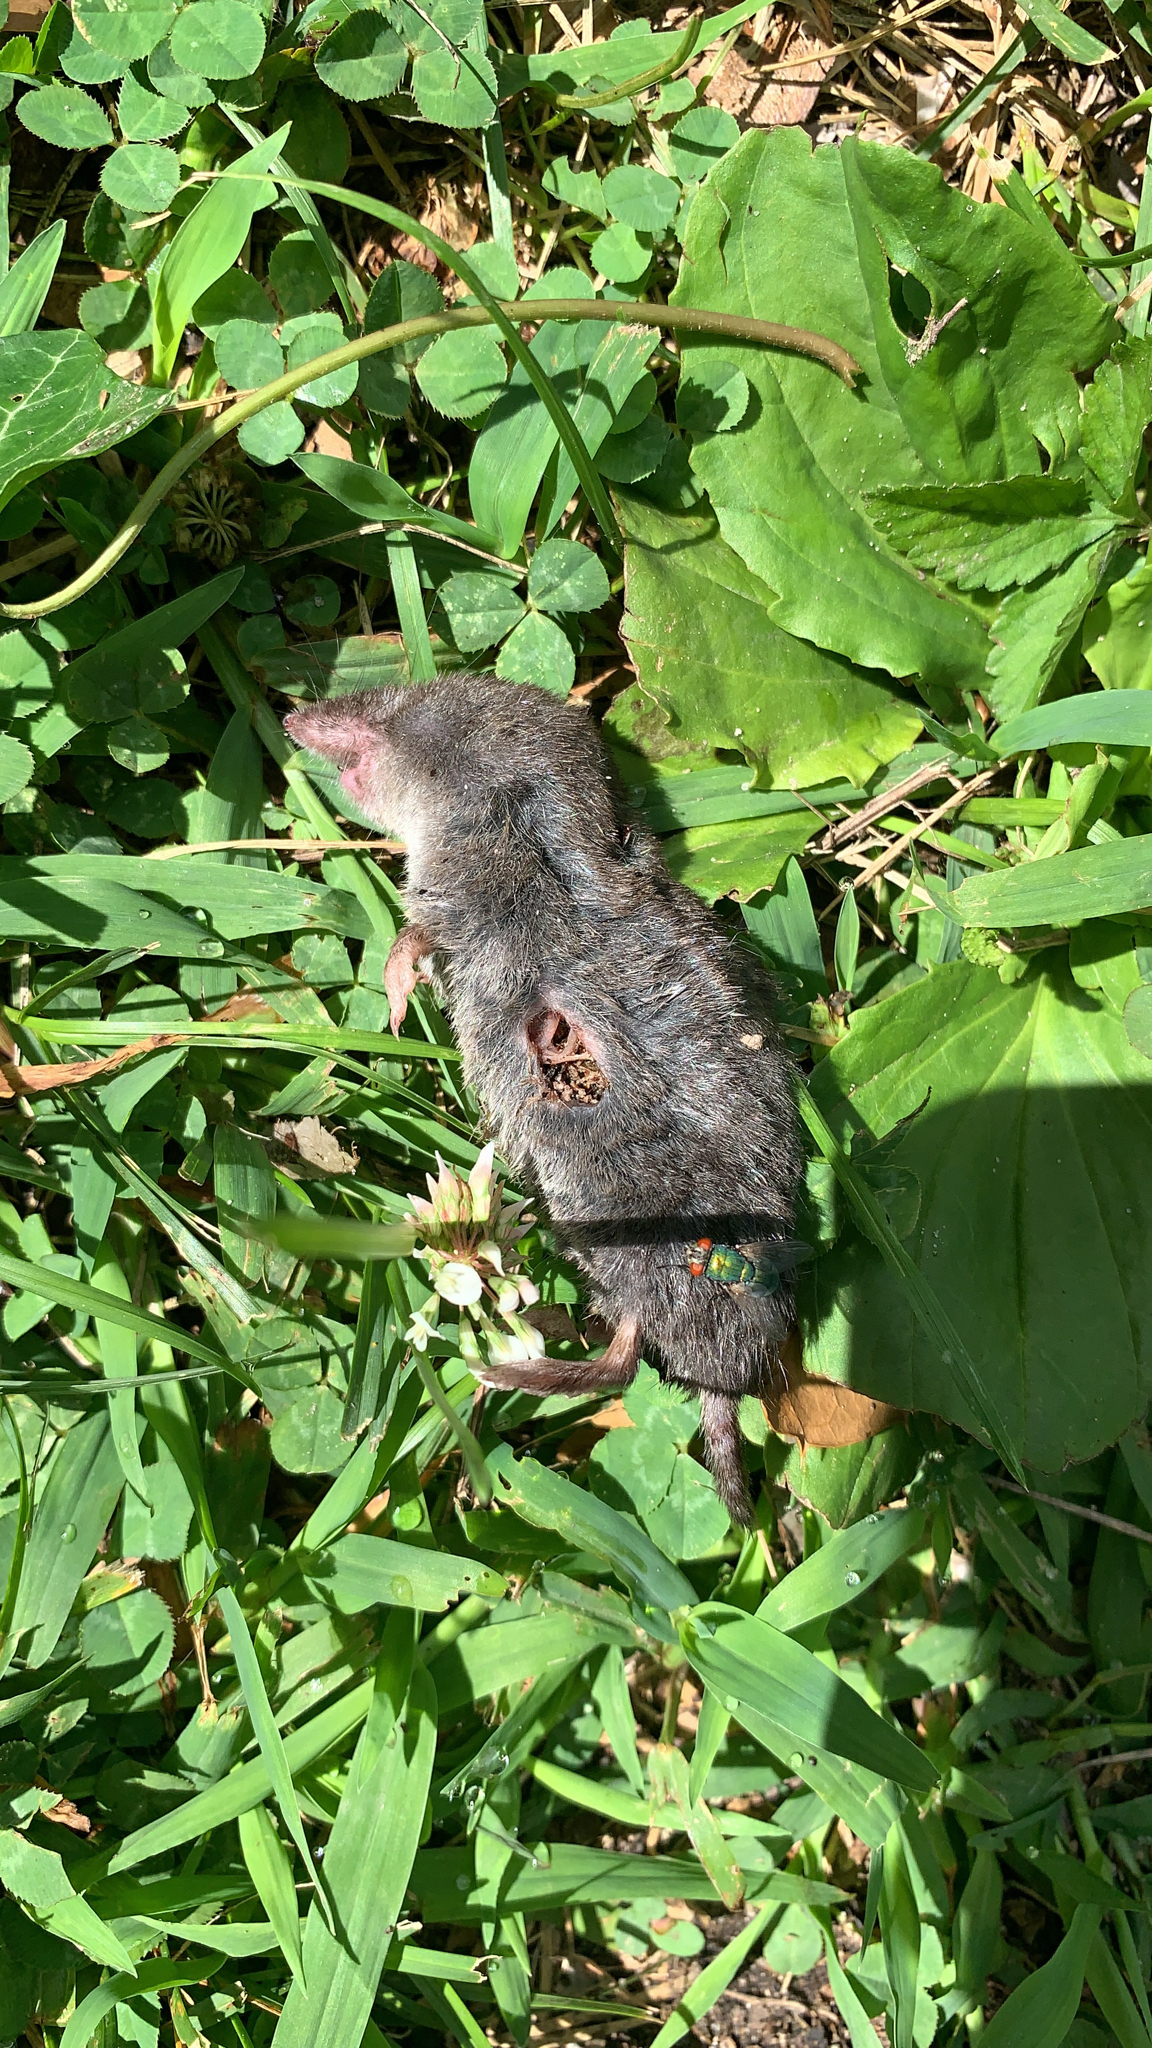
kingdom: Animalia
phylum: Chordata
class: Mammalia
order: Soricomorpha
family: Soricidae
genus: Blarina
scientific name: Blarina brevicauda
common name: Northern short-tailed shrew
